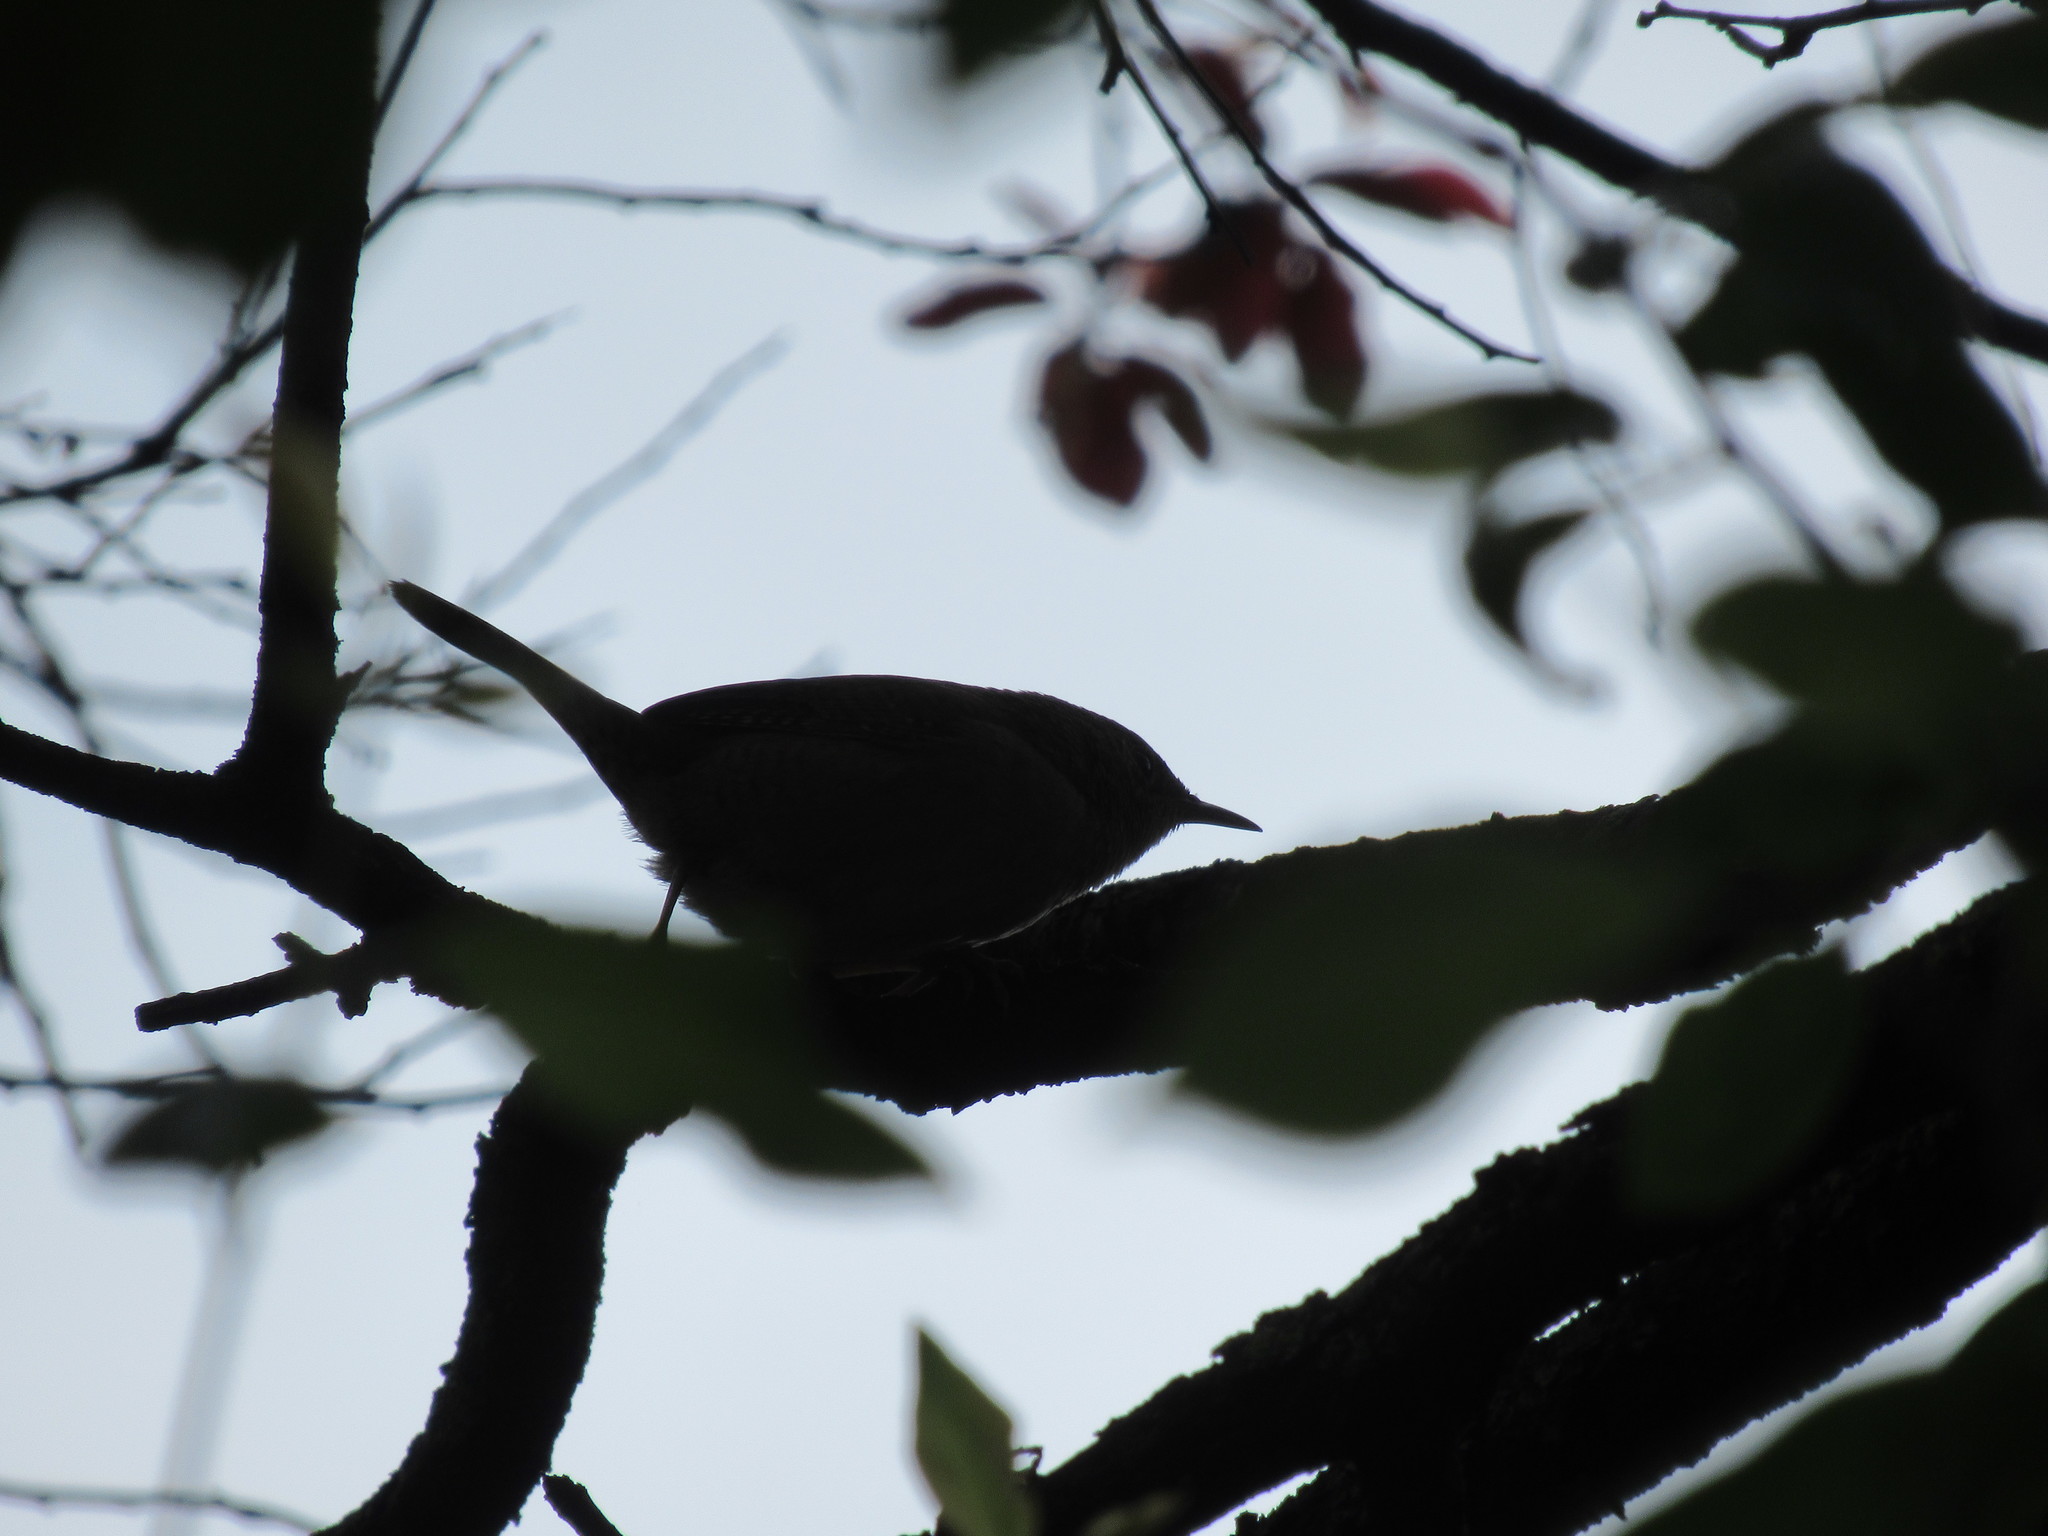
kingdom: Animalia
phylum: Chordata
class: Aves
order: Passeriformes
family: Troglodytidae
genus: Troglodytes
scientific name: Troglodytes aedon
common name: House wren
